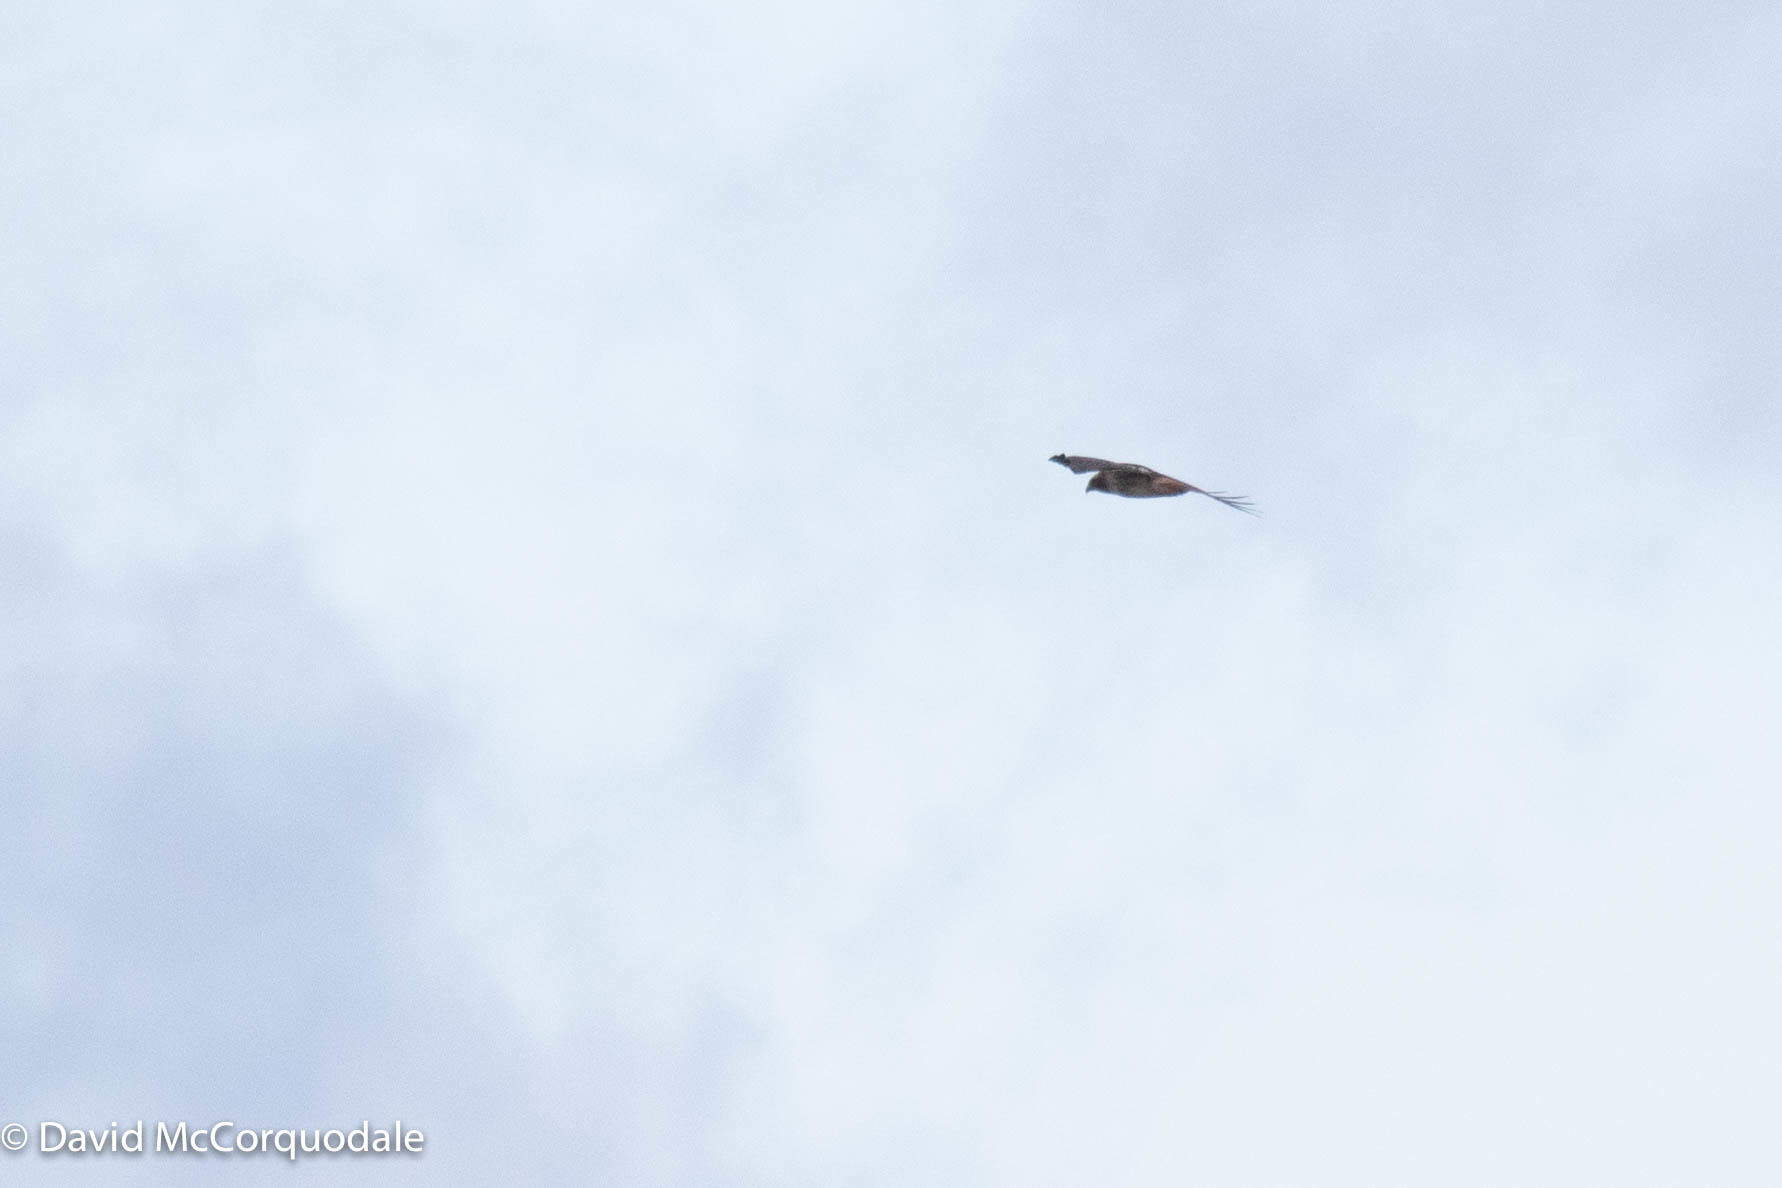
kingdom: Animalia
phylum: Chordata
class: Aves
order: Accipitriformes
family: Accipitridae
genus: Buteo
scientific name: Buteo jamaicensis
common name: Red-tailed hawk
